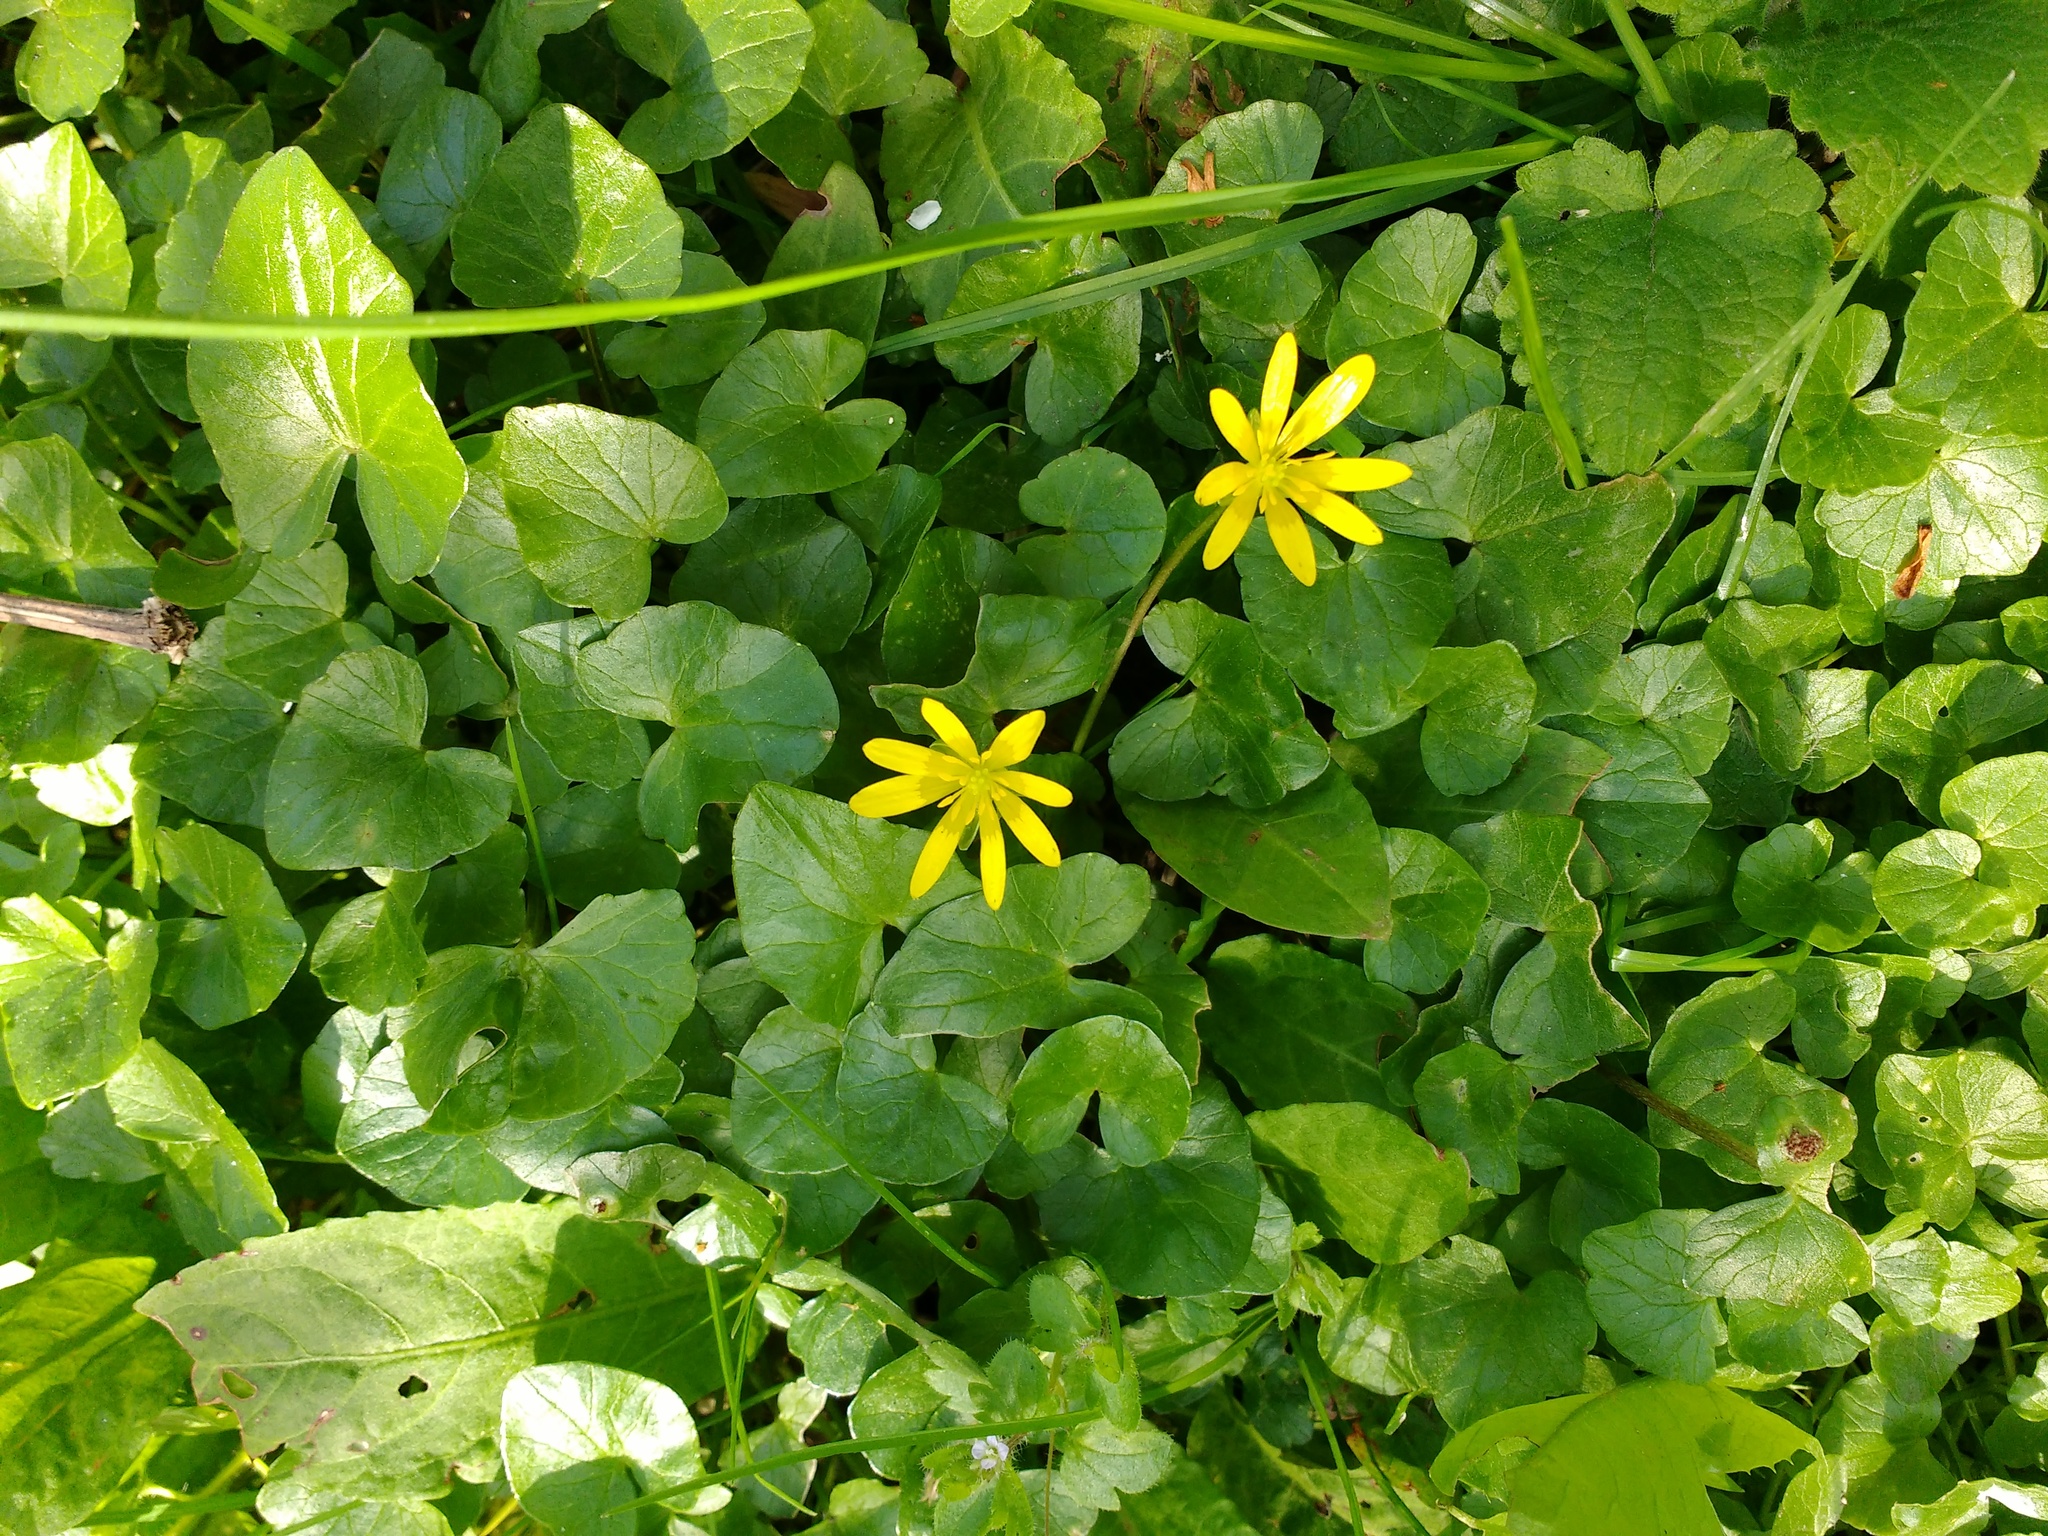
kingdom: Plantae
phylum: Tracheophyta
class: Magnoliopsida
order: Ranunculales
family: Ranunculaceae
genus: Ficaria
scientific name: Ficaria verna
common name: Lesser celandine
